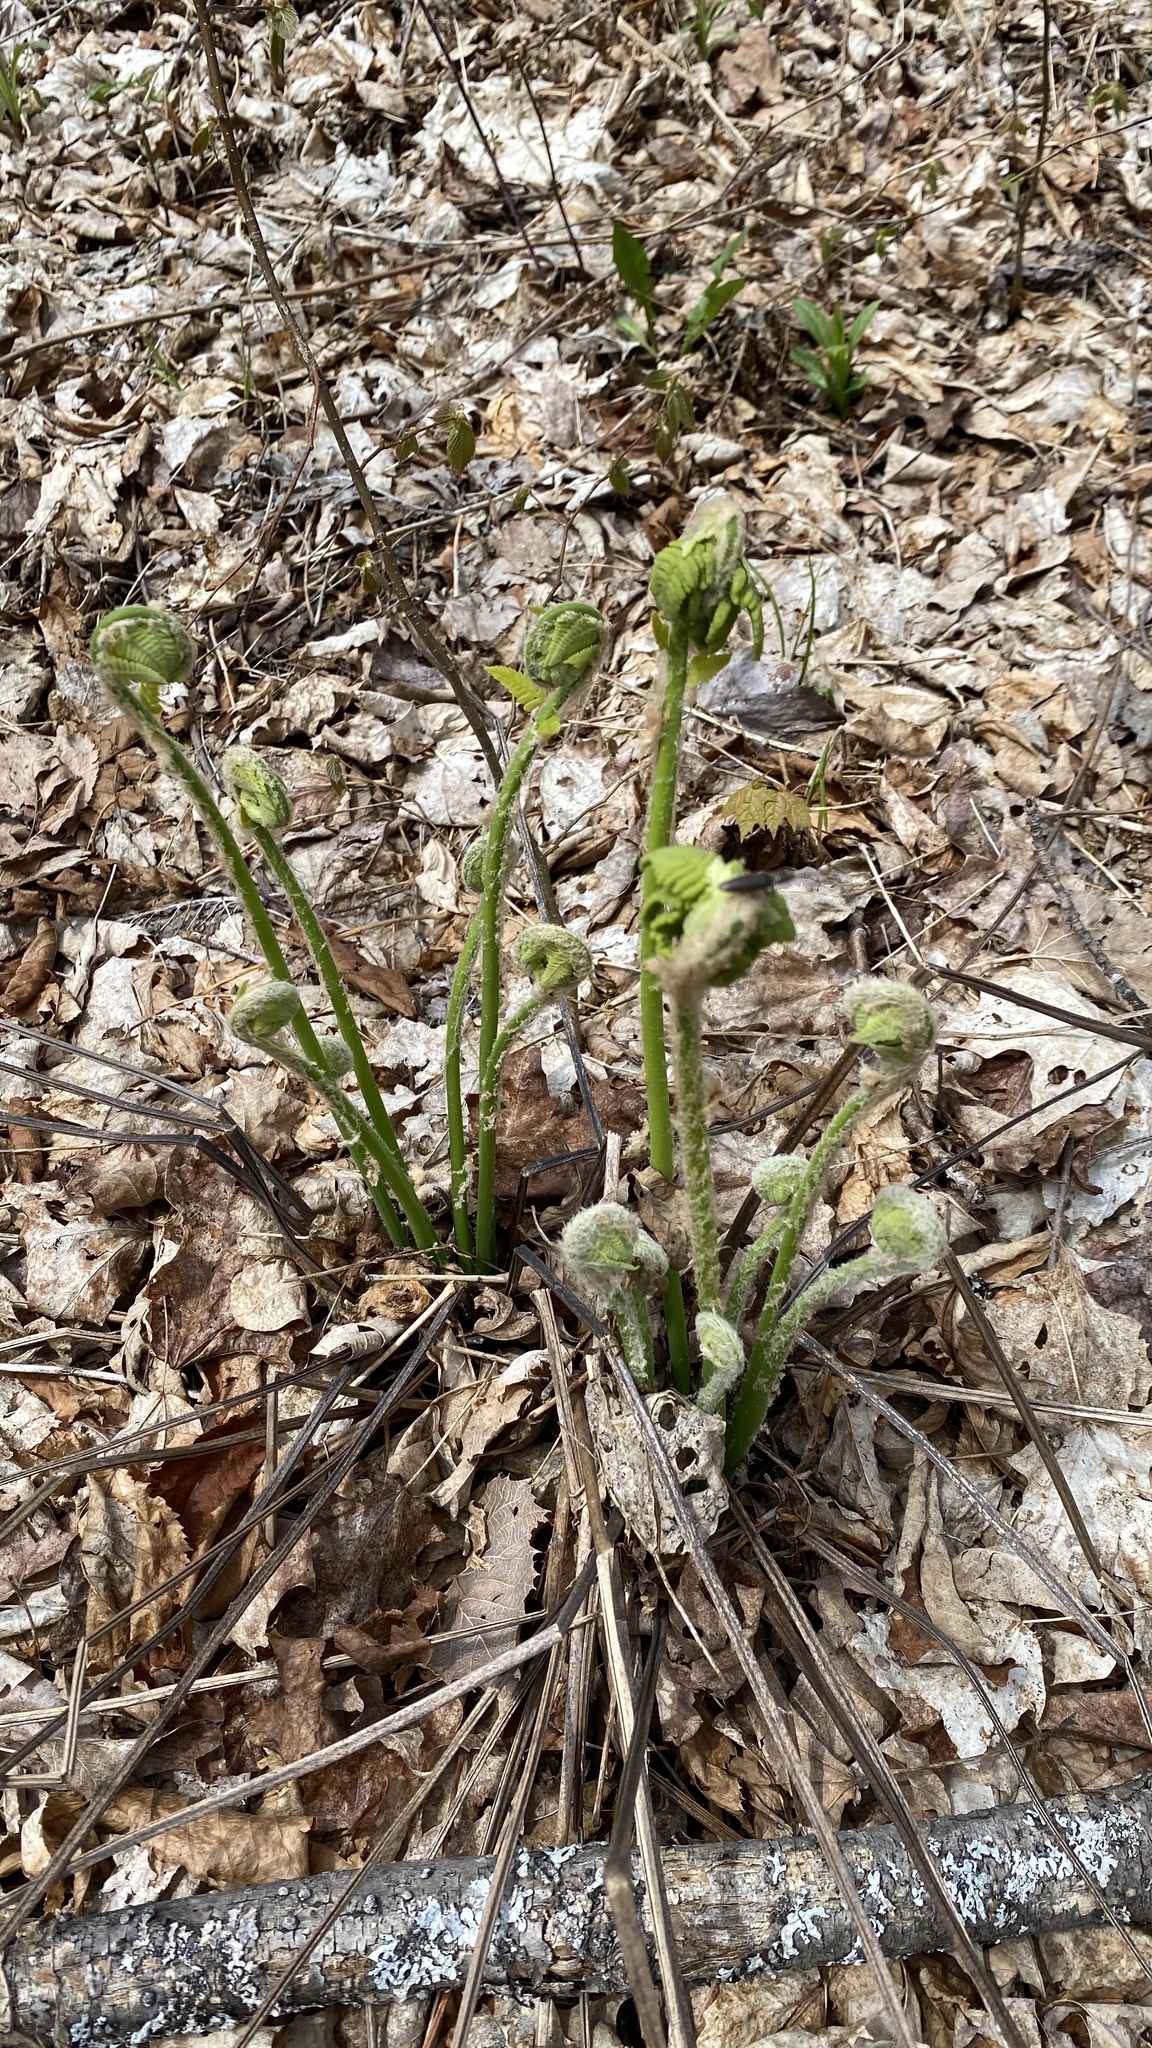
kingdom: Plantae
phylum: Tracheophyta
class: Polypodiopsida
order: Osmundales
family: Osmundaceae
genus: Claytosmunda
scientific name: Claytosmunda claytoniana
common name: Clayton's fern
